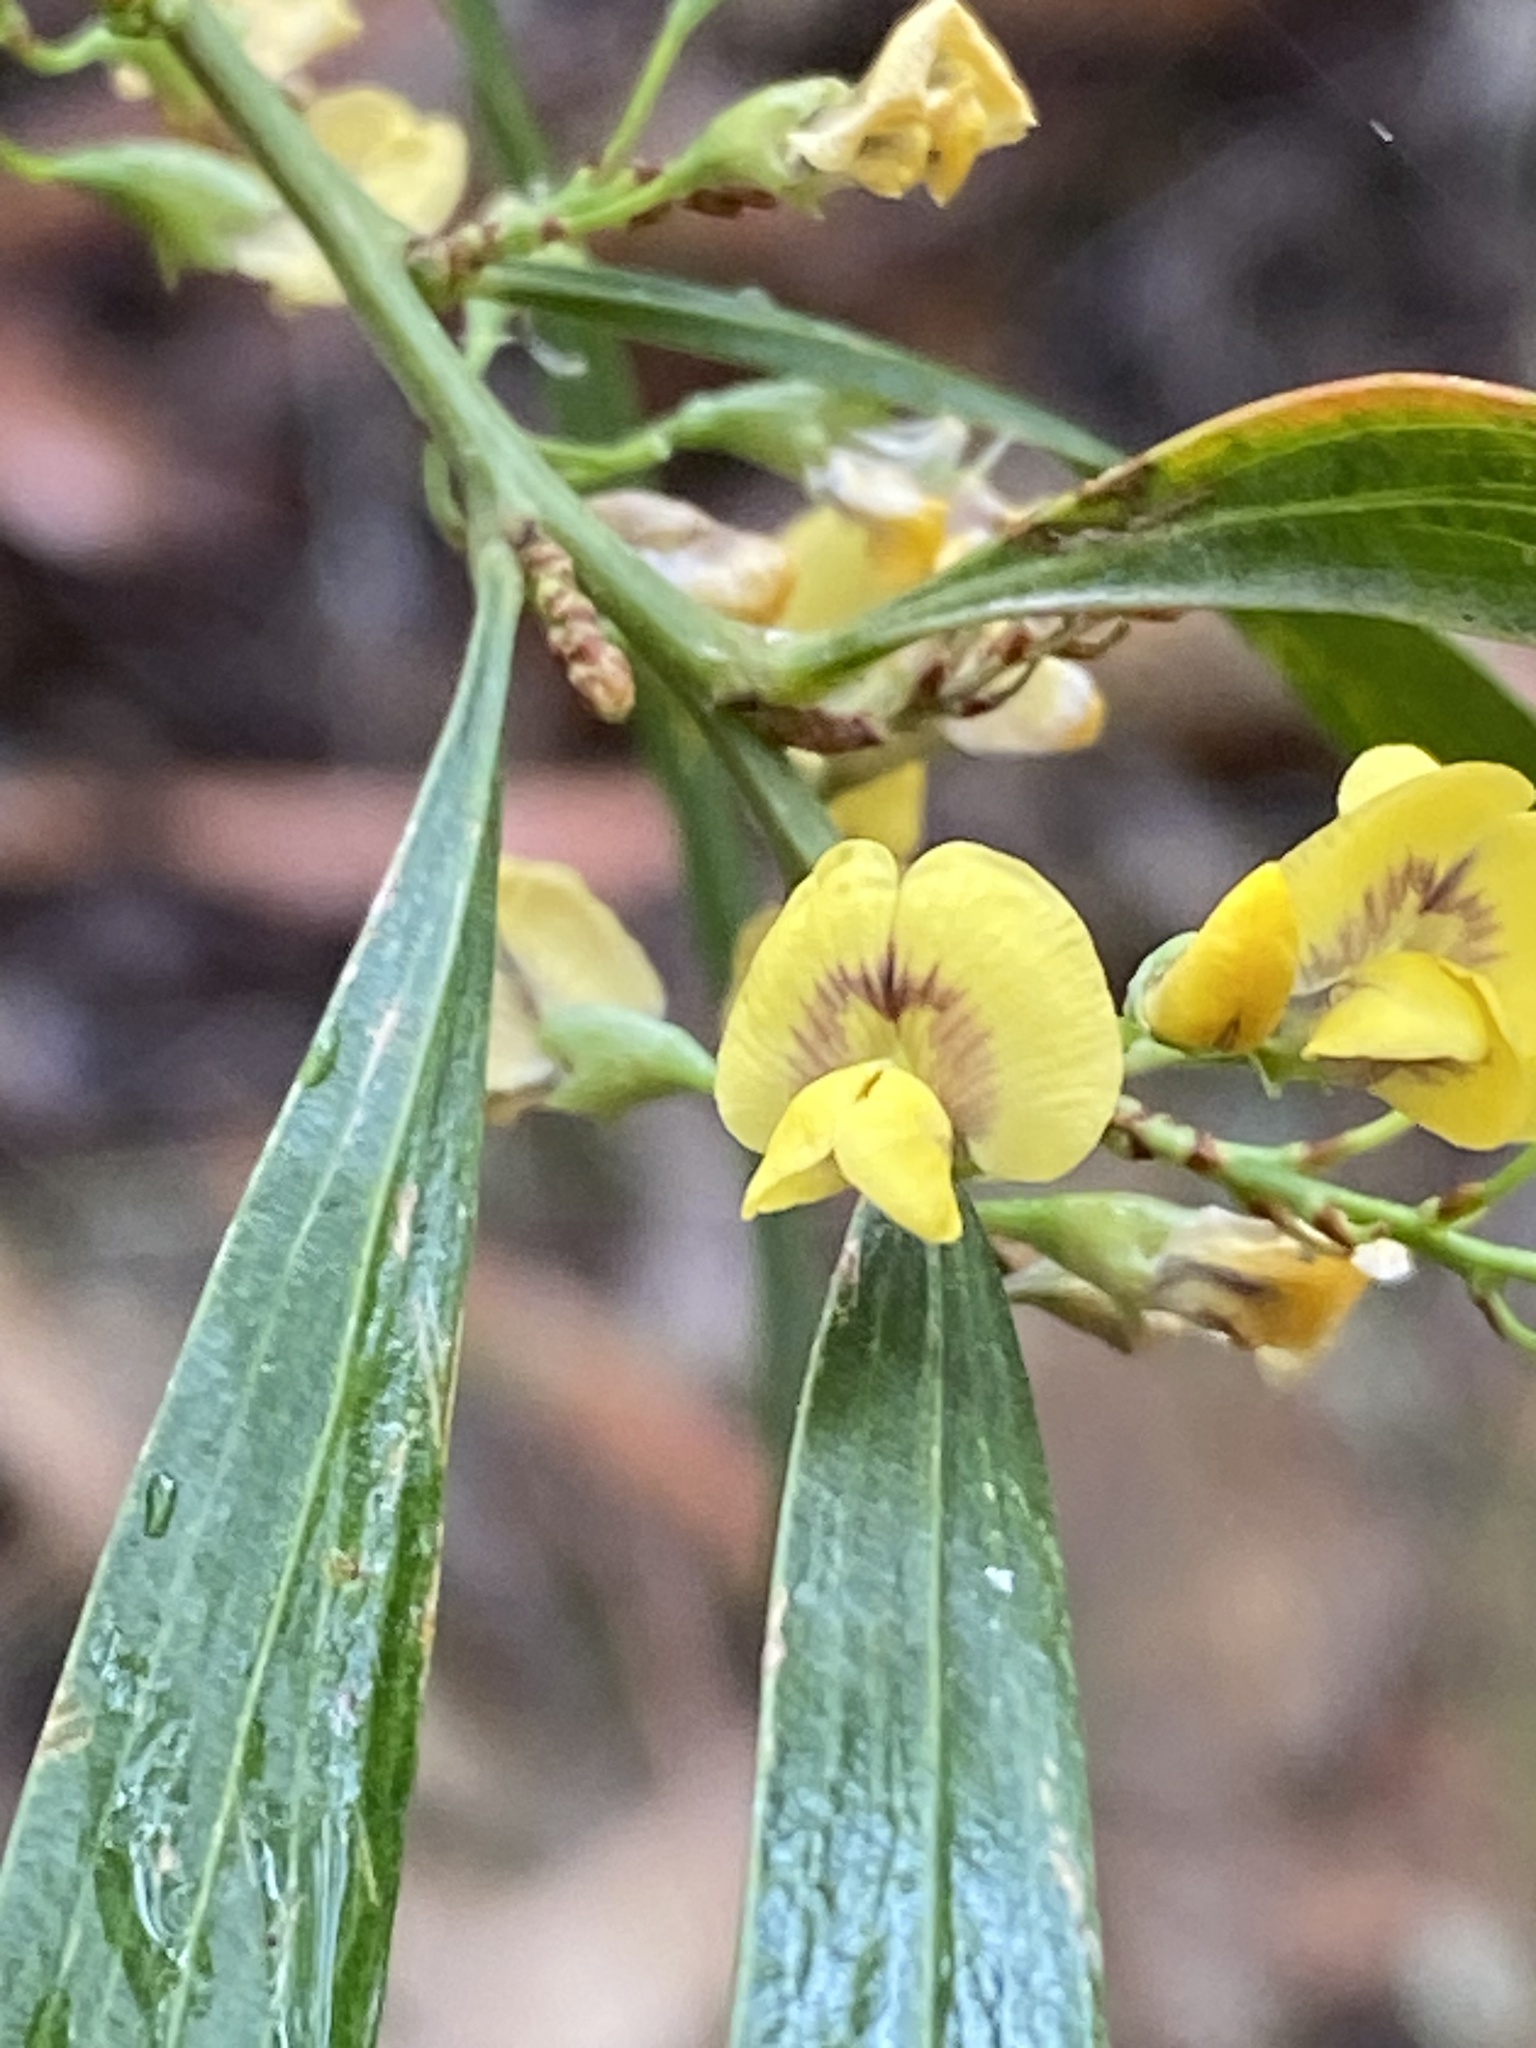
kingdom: Plantae
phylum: Tracheophyta
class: Magnoliopsida
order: Fabales
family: Fabaceae
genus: Daviesia
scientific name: Daviesia arborea
